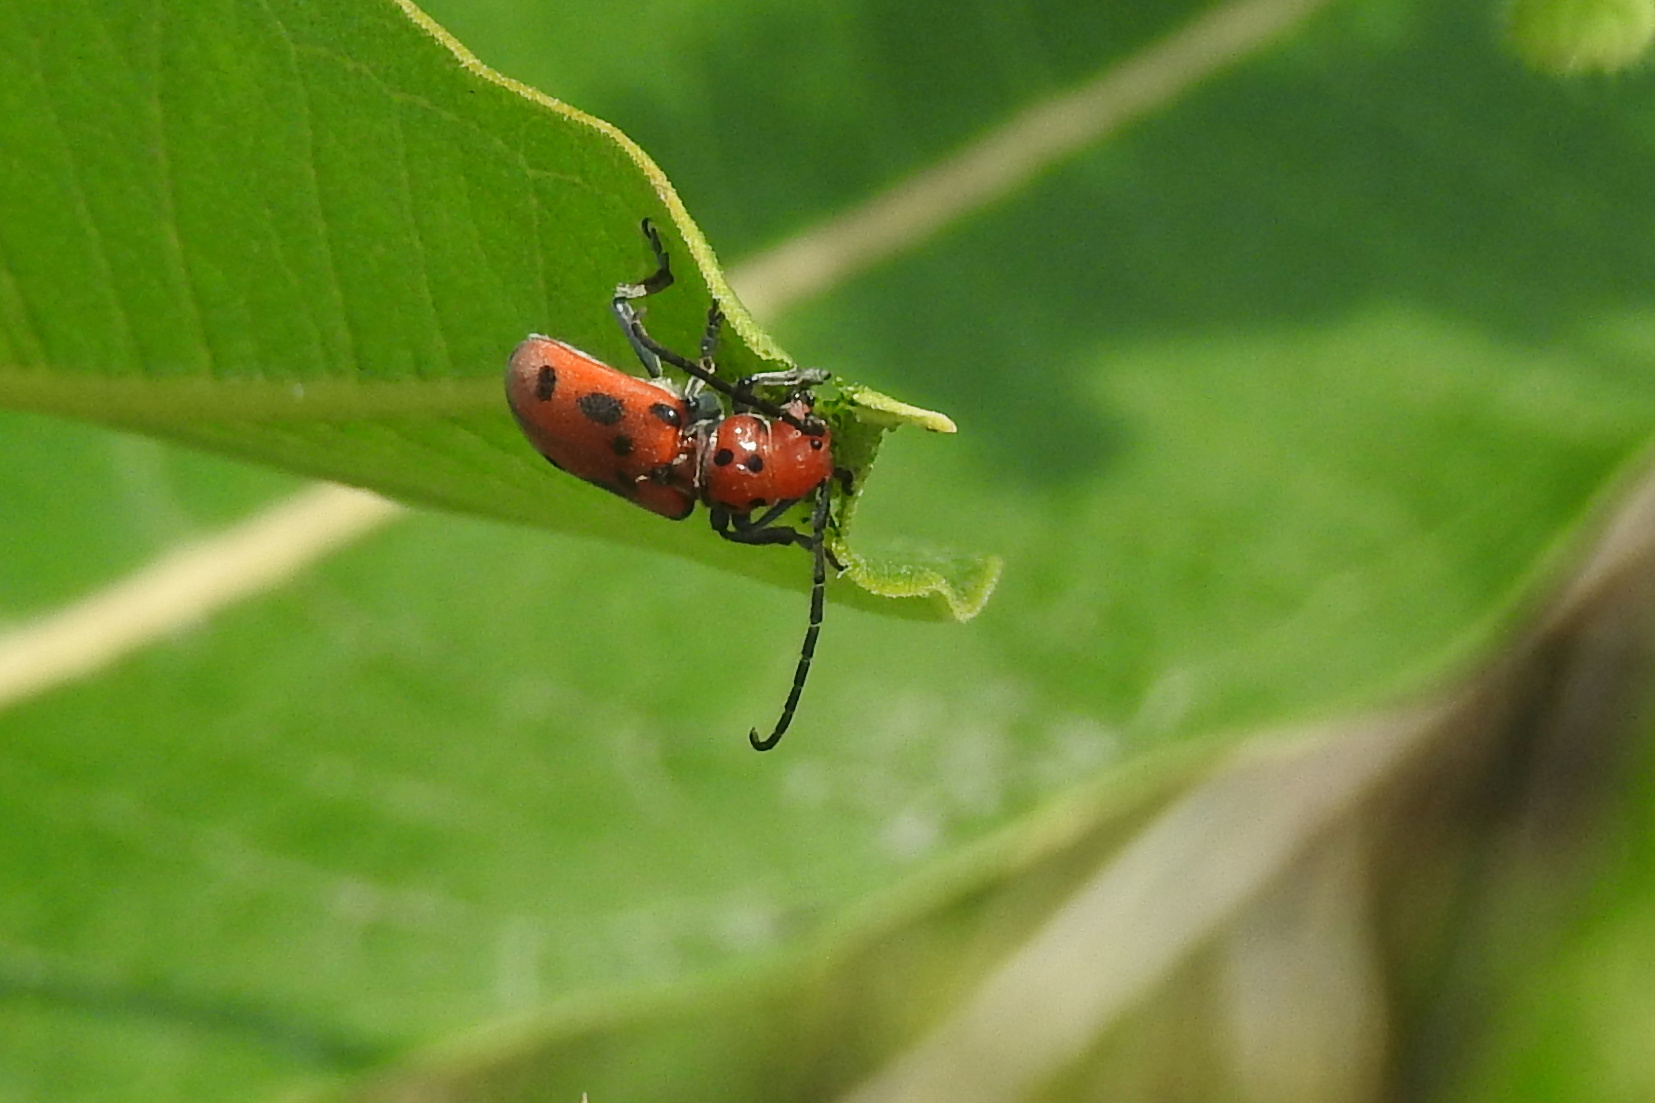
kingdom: Animalia
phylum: Arthropoda
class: Insecta
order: Coleoptera
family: Cerambycidae
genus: Tetraopes
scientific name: Tetraopes tetrophthalmus
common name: Red milkweed beetle
